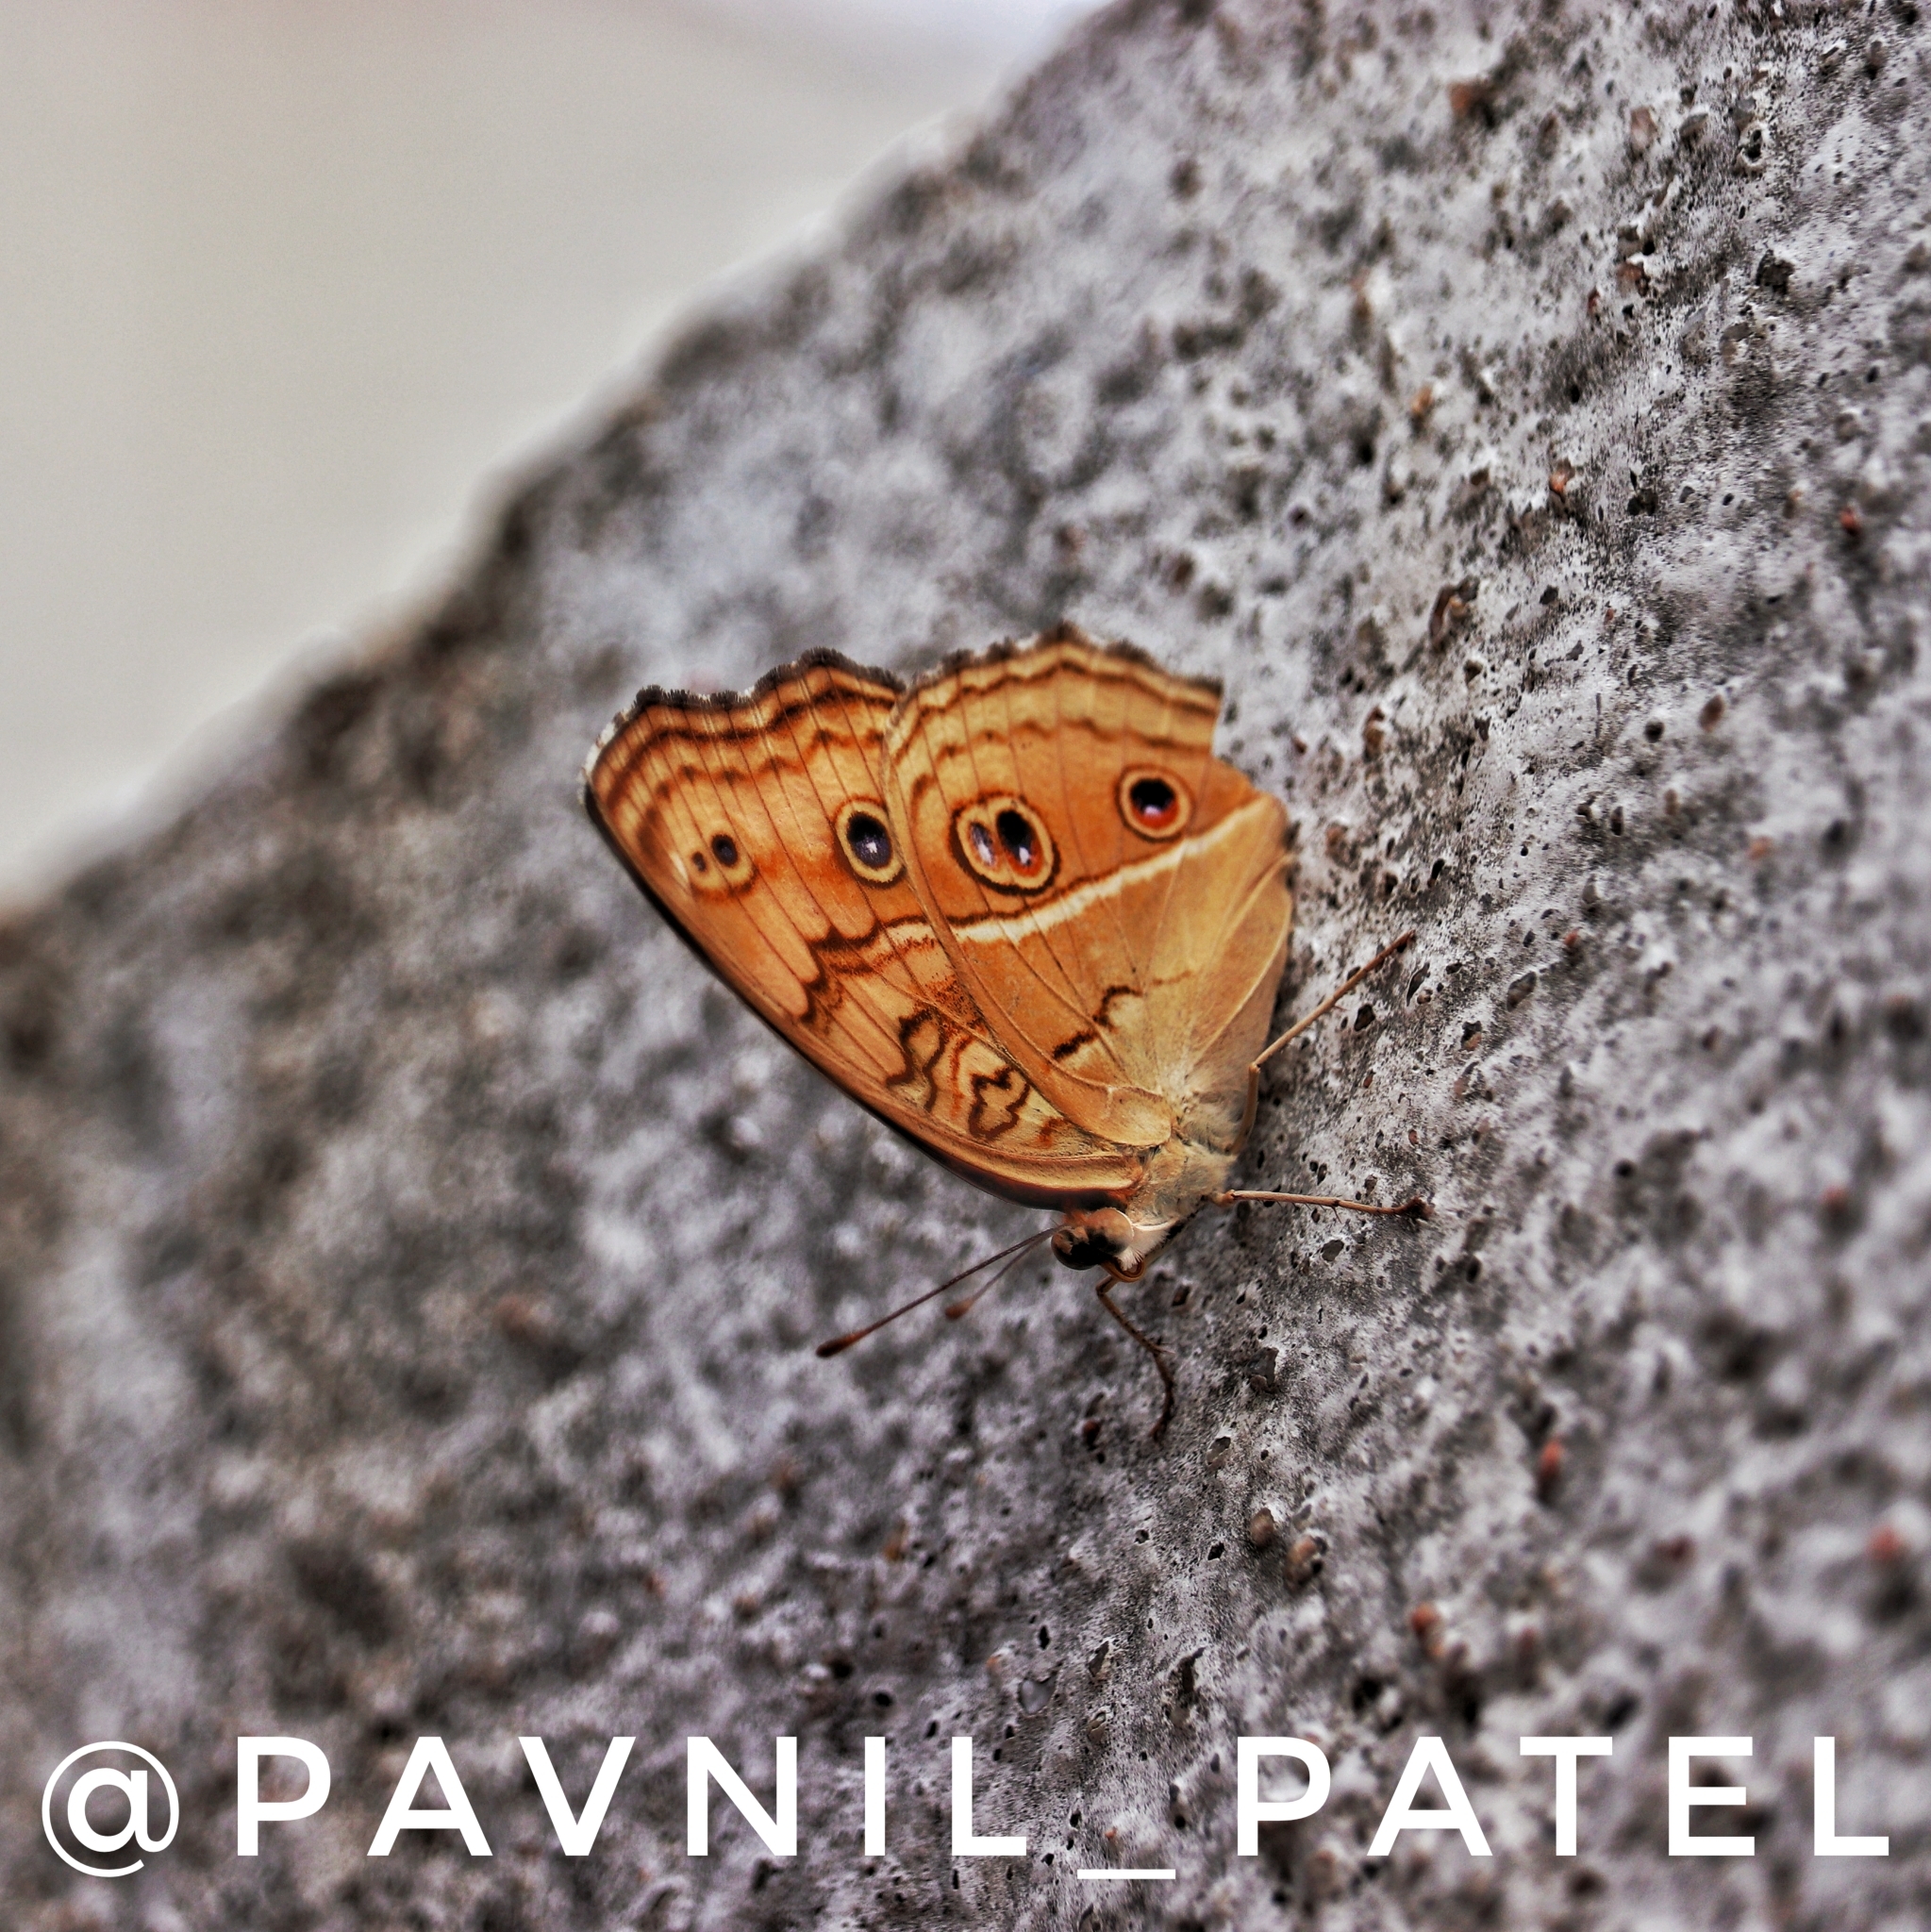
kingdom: Animalia
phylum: Arthropoda
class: Insecta
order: Lepidoptera
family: Nymphalidae
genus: Junonia
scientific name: Junonia almana
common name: Peacock pansy
